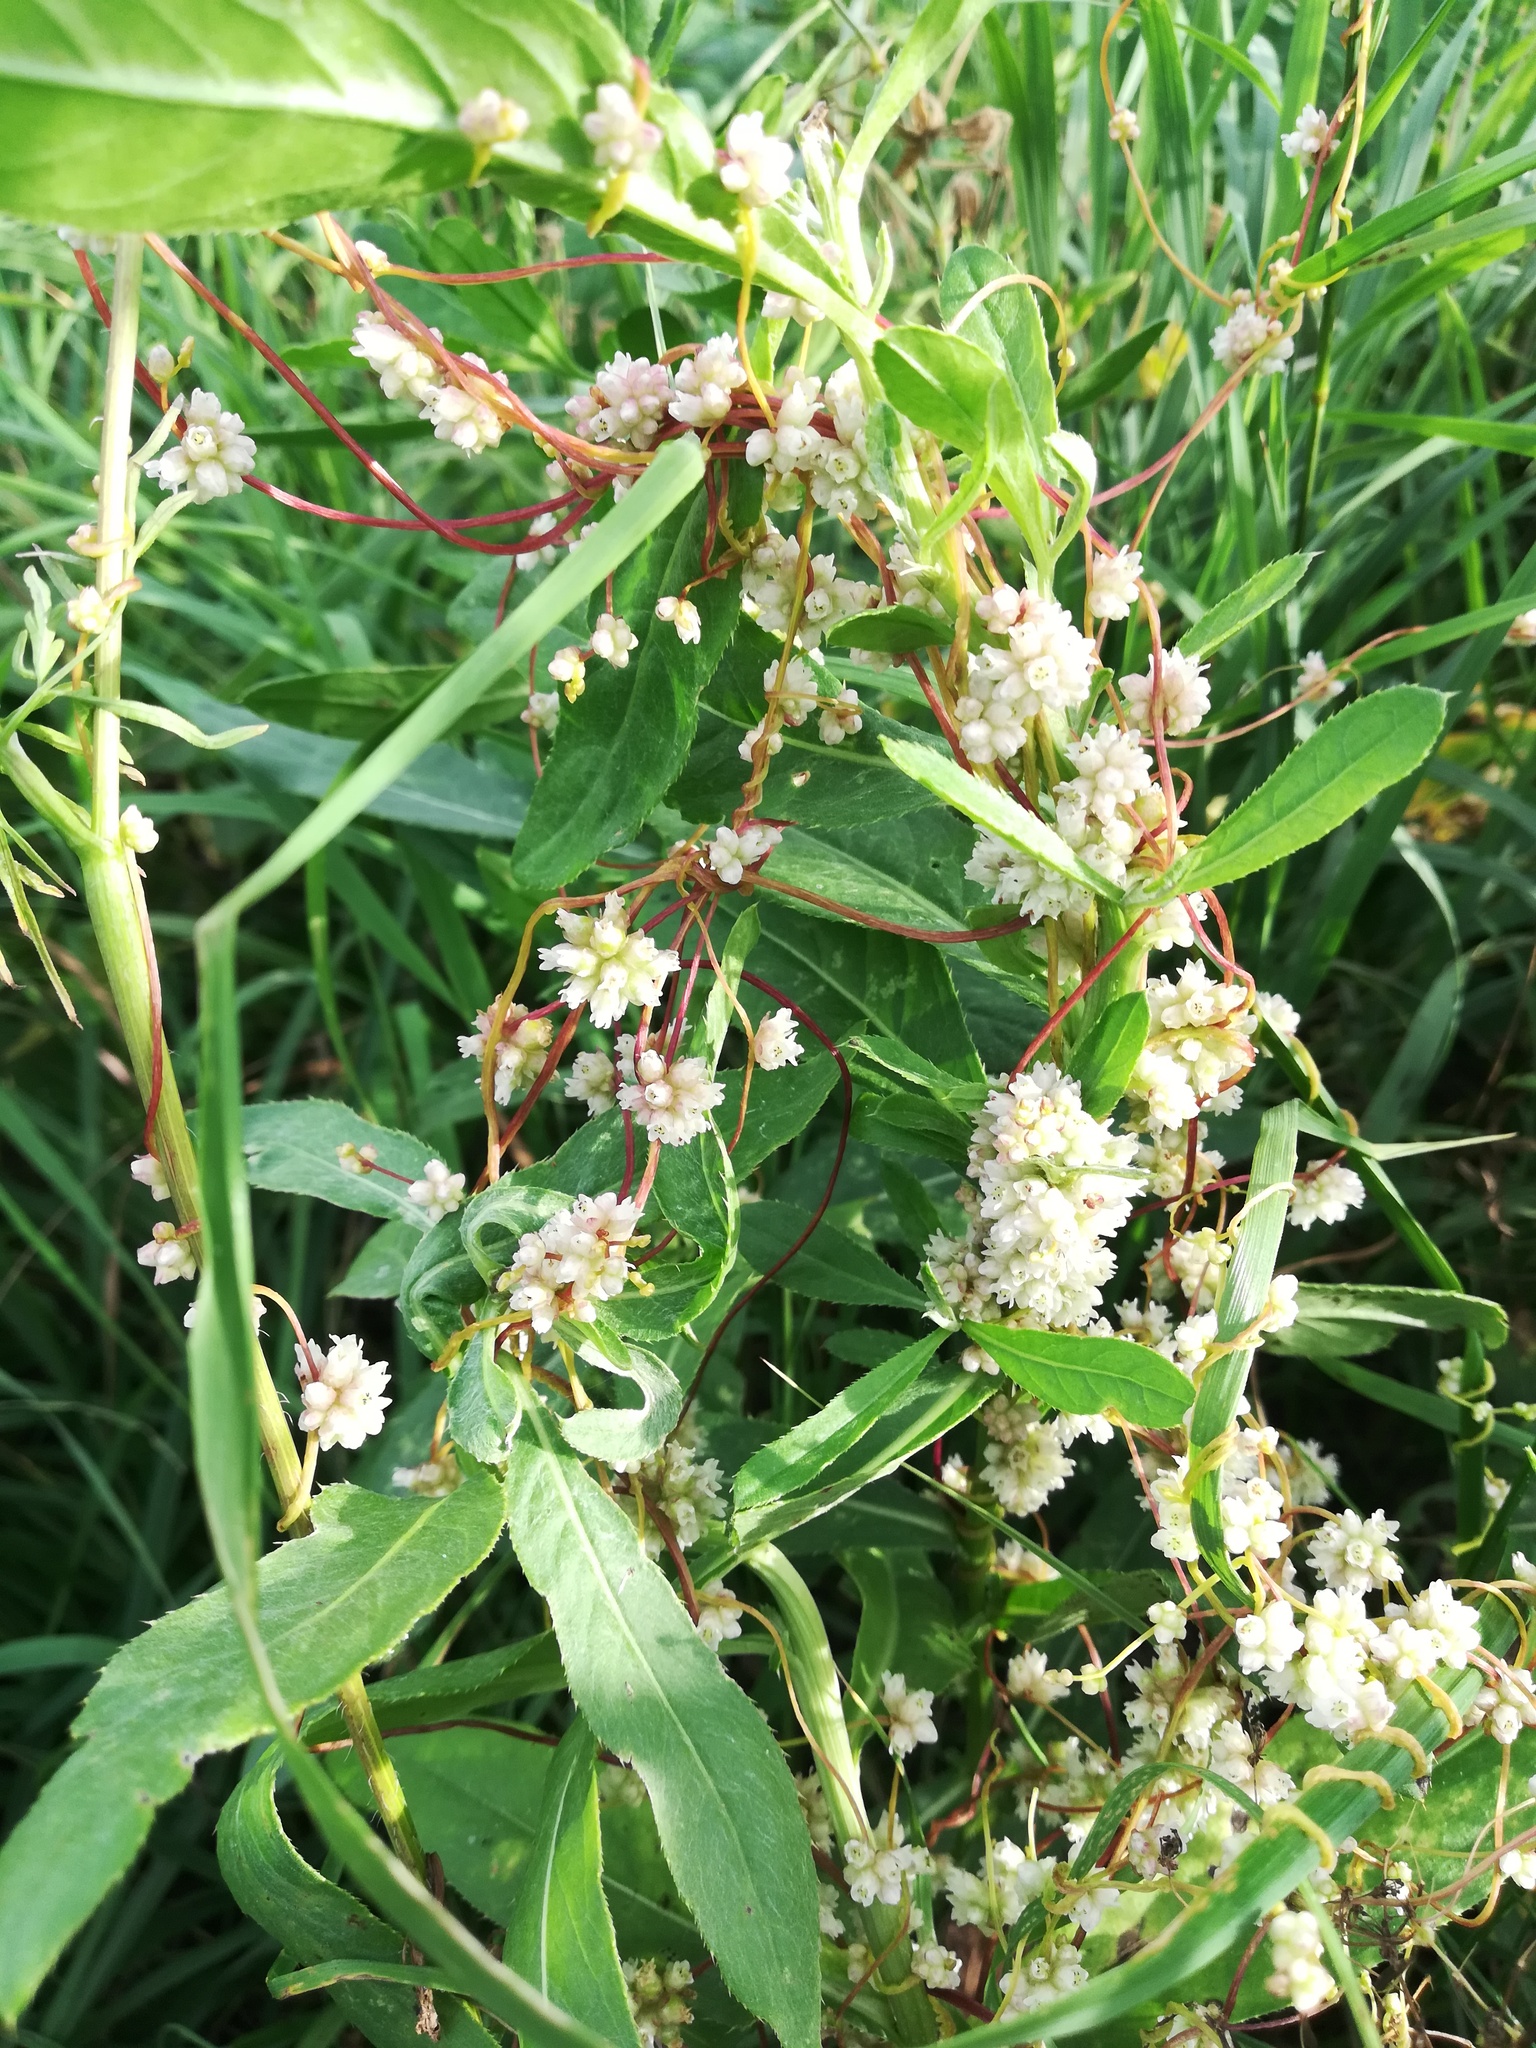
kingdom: Plantae
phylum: Tracheophyta
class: Magnoliopsida
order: Solanales
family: Convolvulaceae
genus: Cuscuta
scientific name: Cuscuta europaea
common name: Greater dodder
